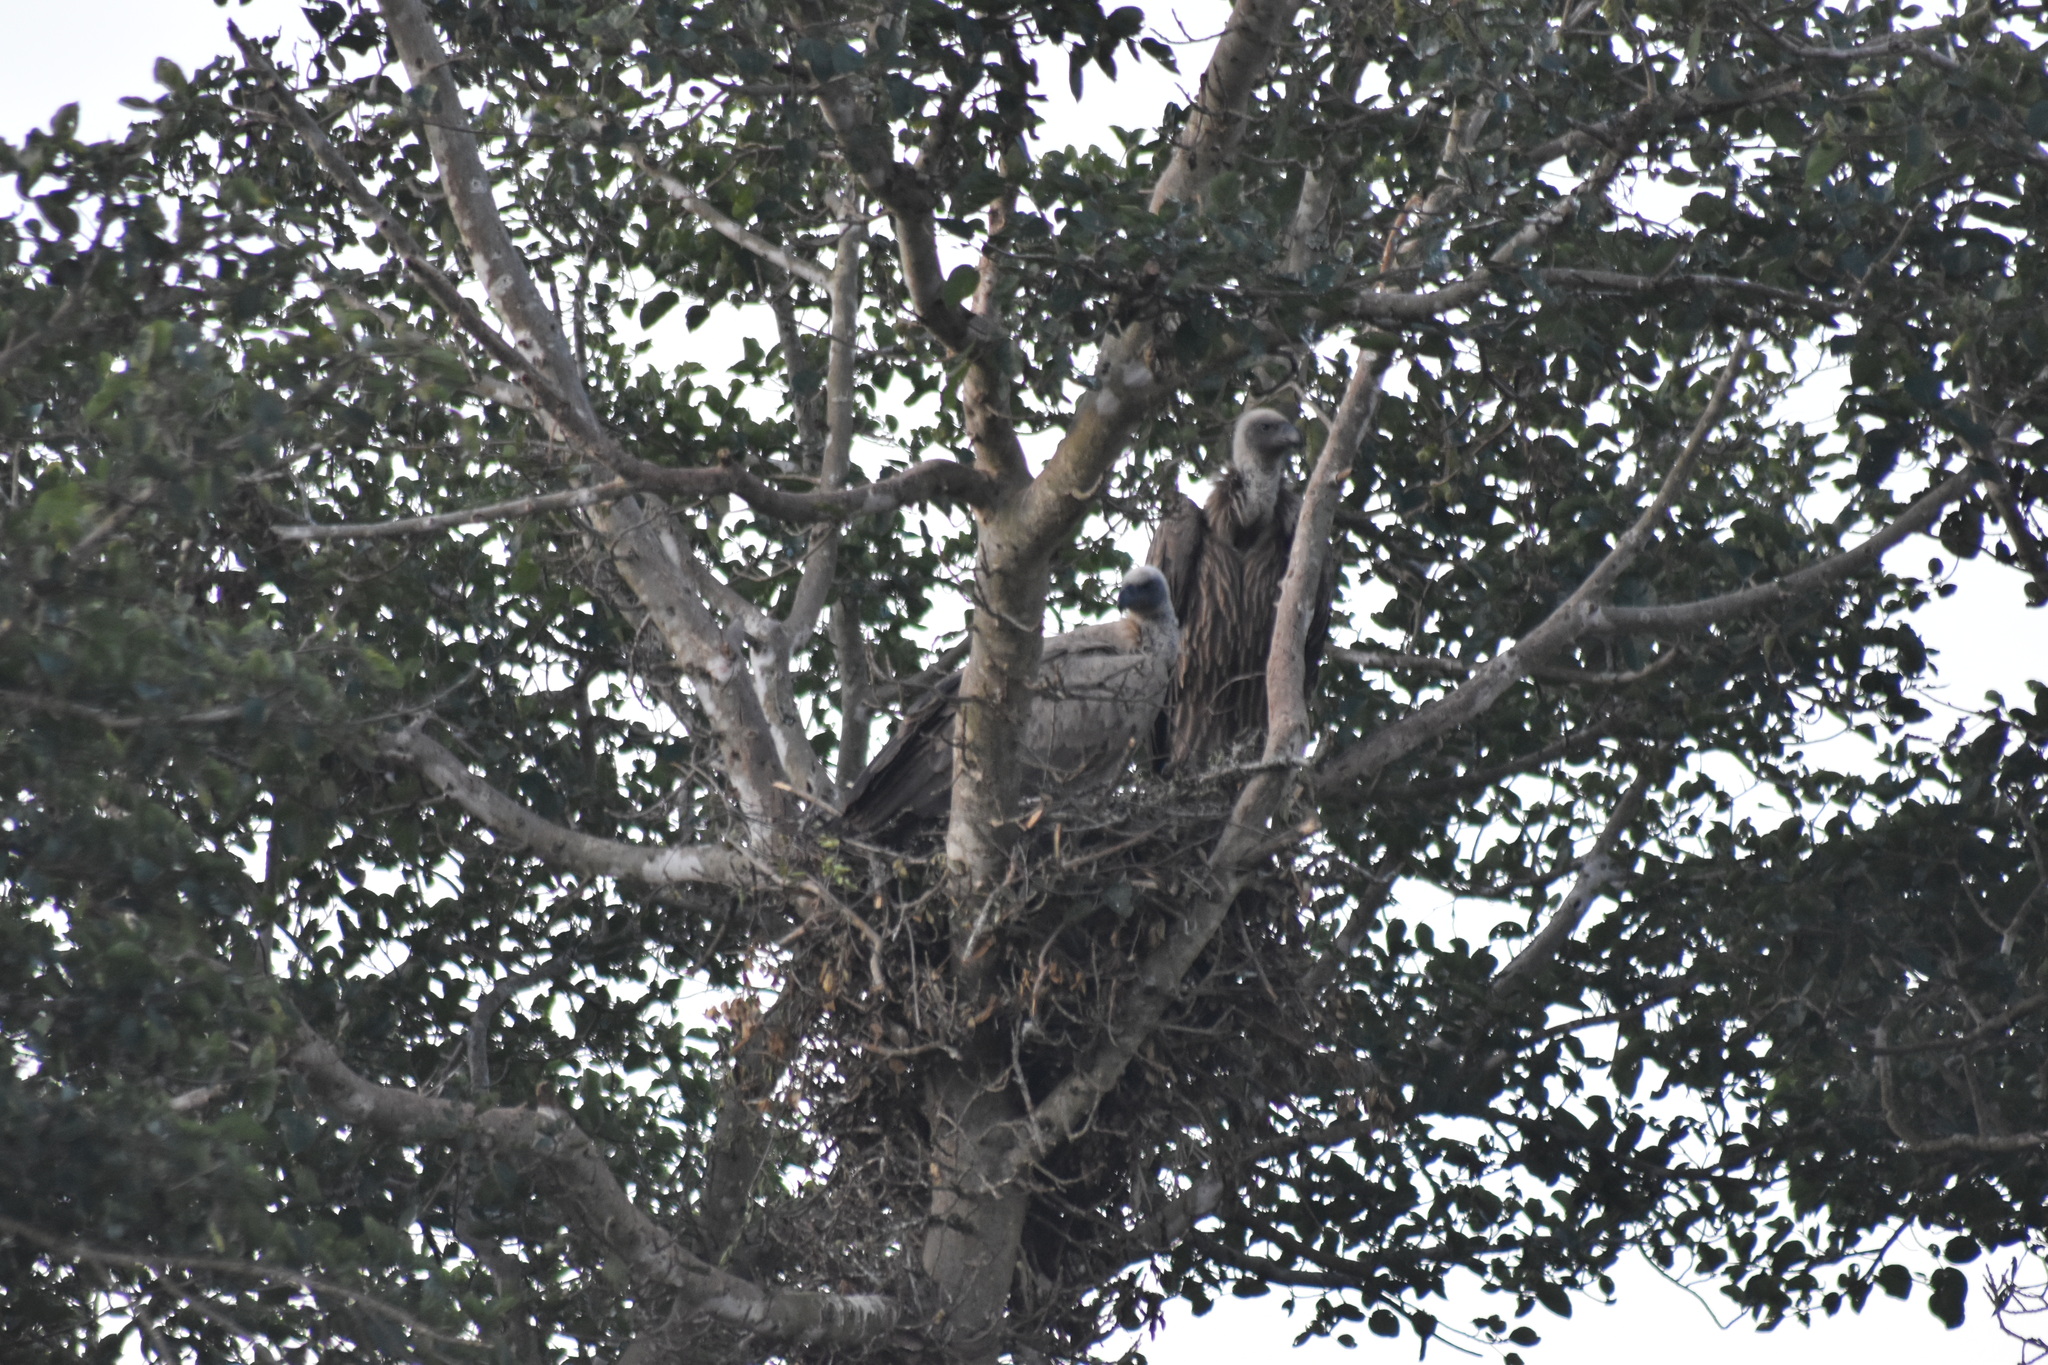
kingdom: Animalia
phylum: Chordata
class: Aves
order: Accipitriformes
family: Accipitridae
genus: Gyps
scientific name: Gyps africanus
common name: White-backed vulture
